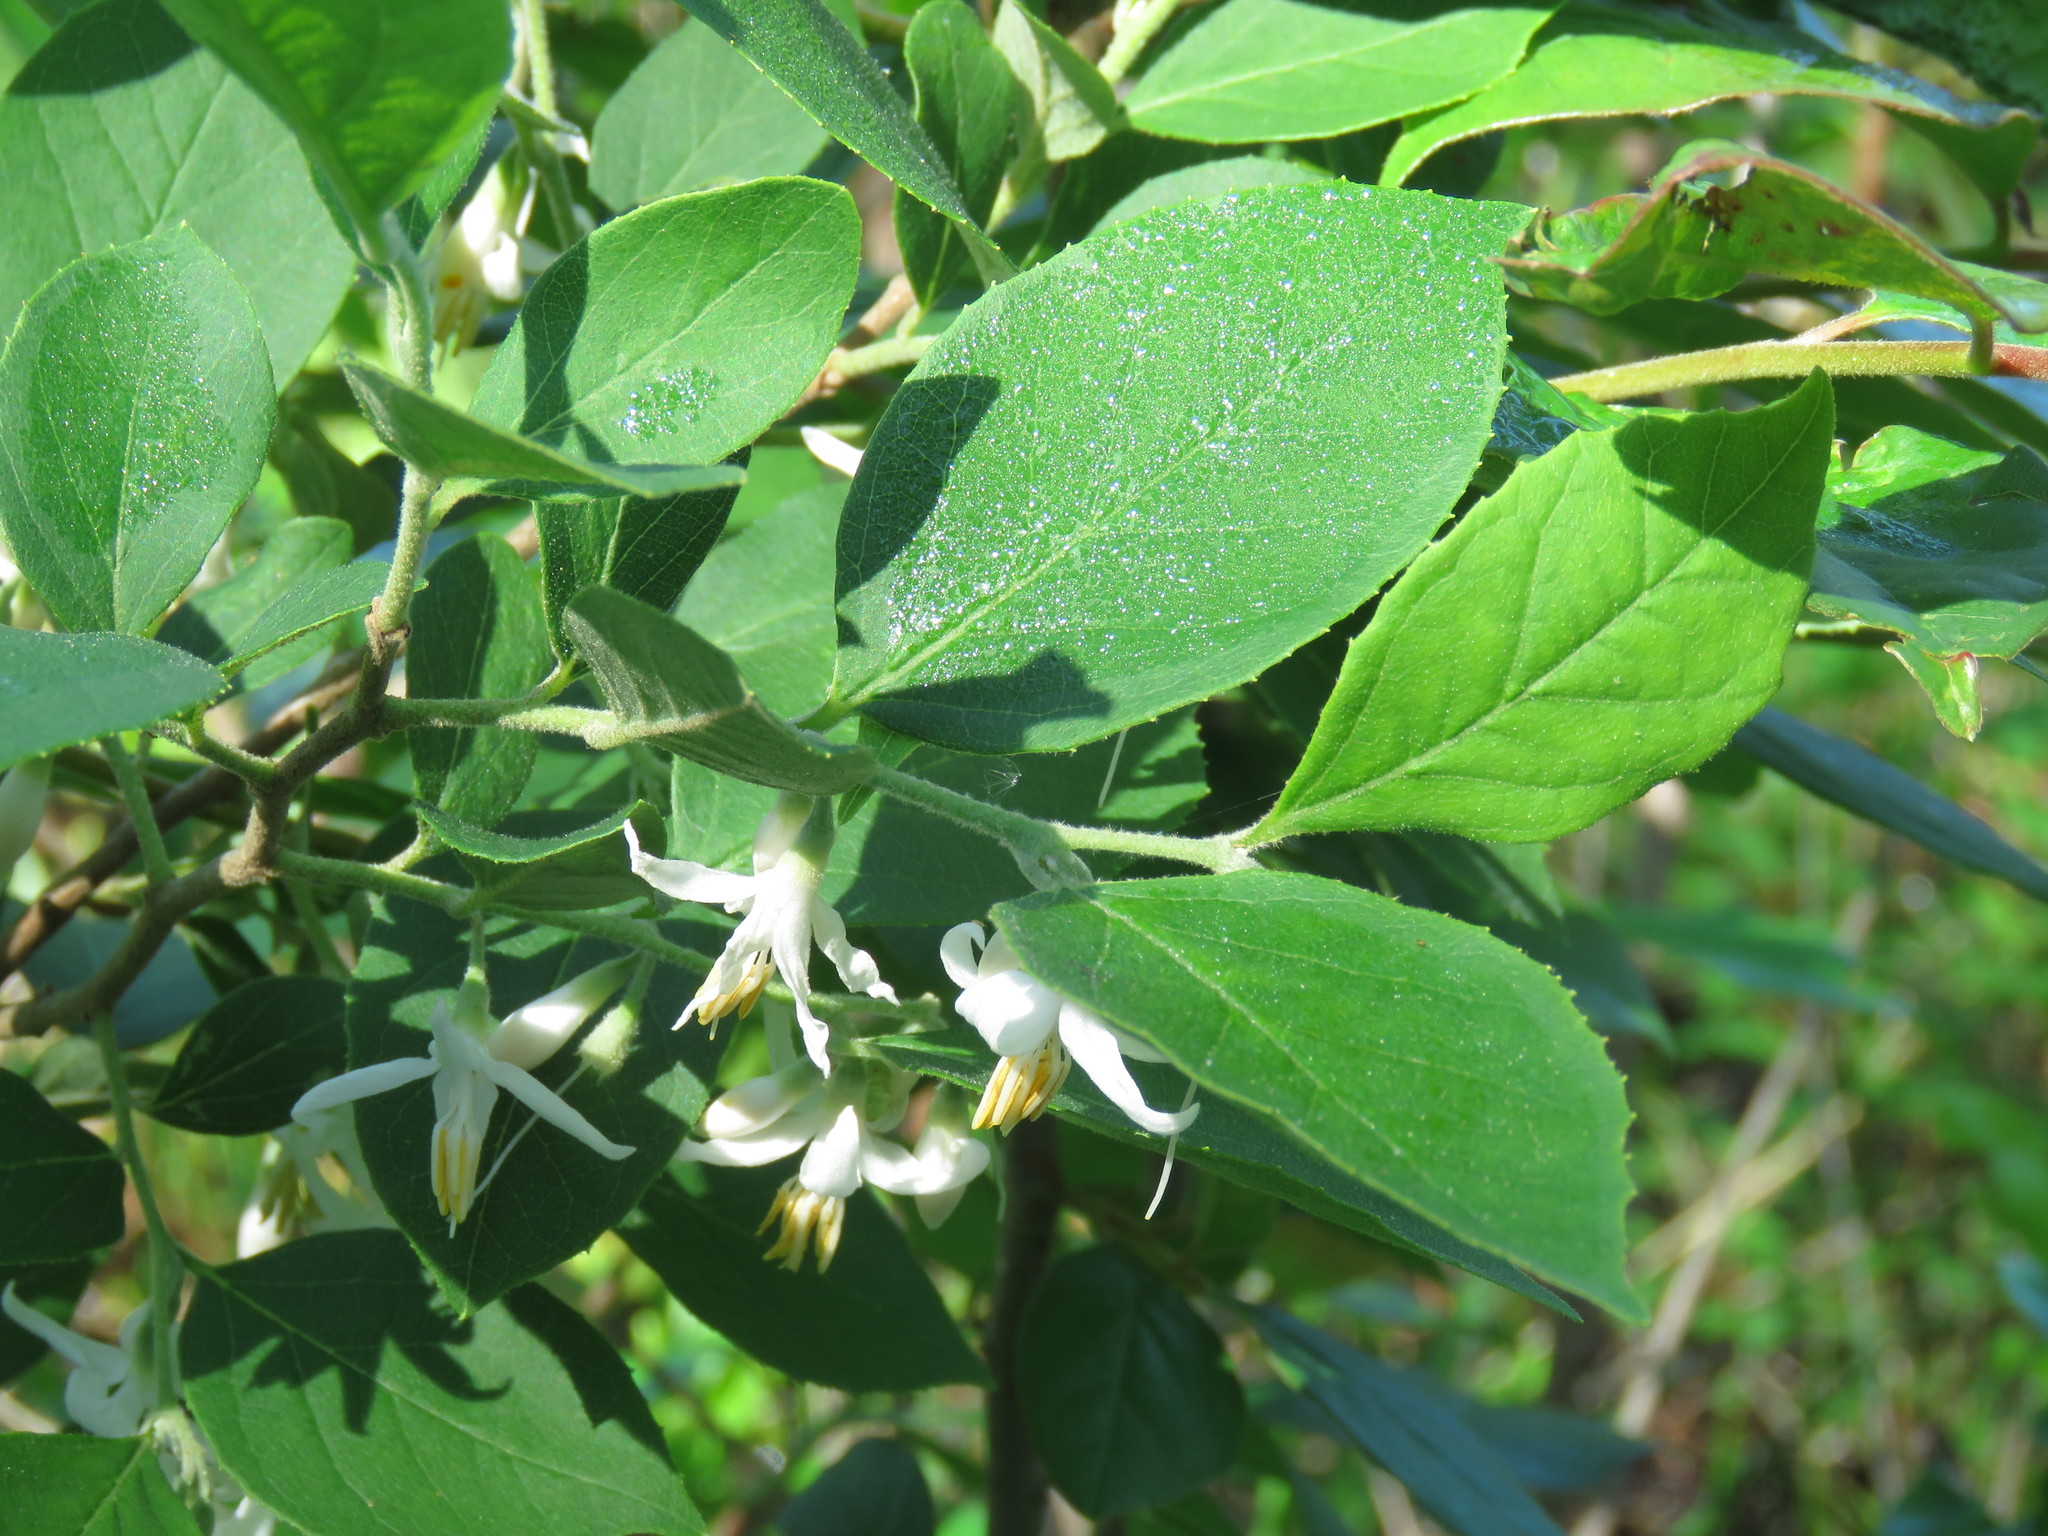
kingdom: Plantae
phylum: Tracheophyta
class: Magnoliopsida
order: Ericales
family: Styracaceae
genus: Styrax
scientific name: Styrax americanus
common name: American snowbell
